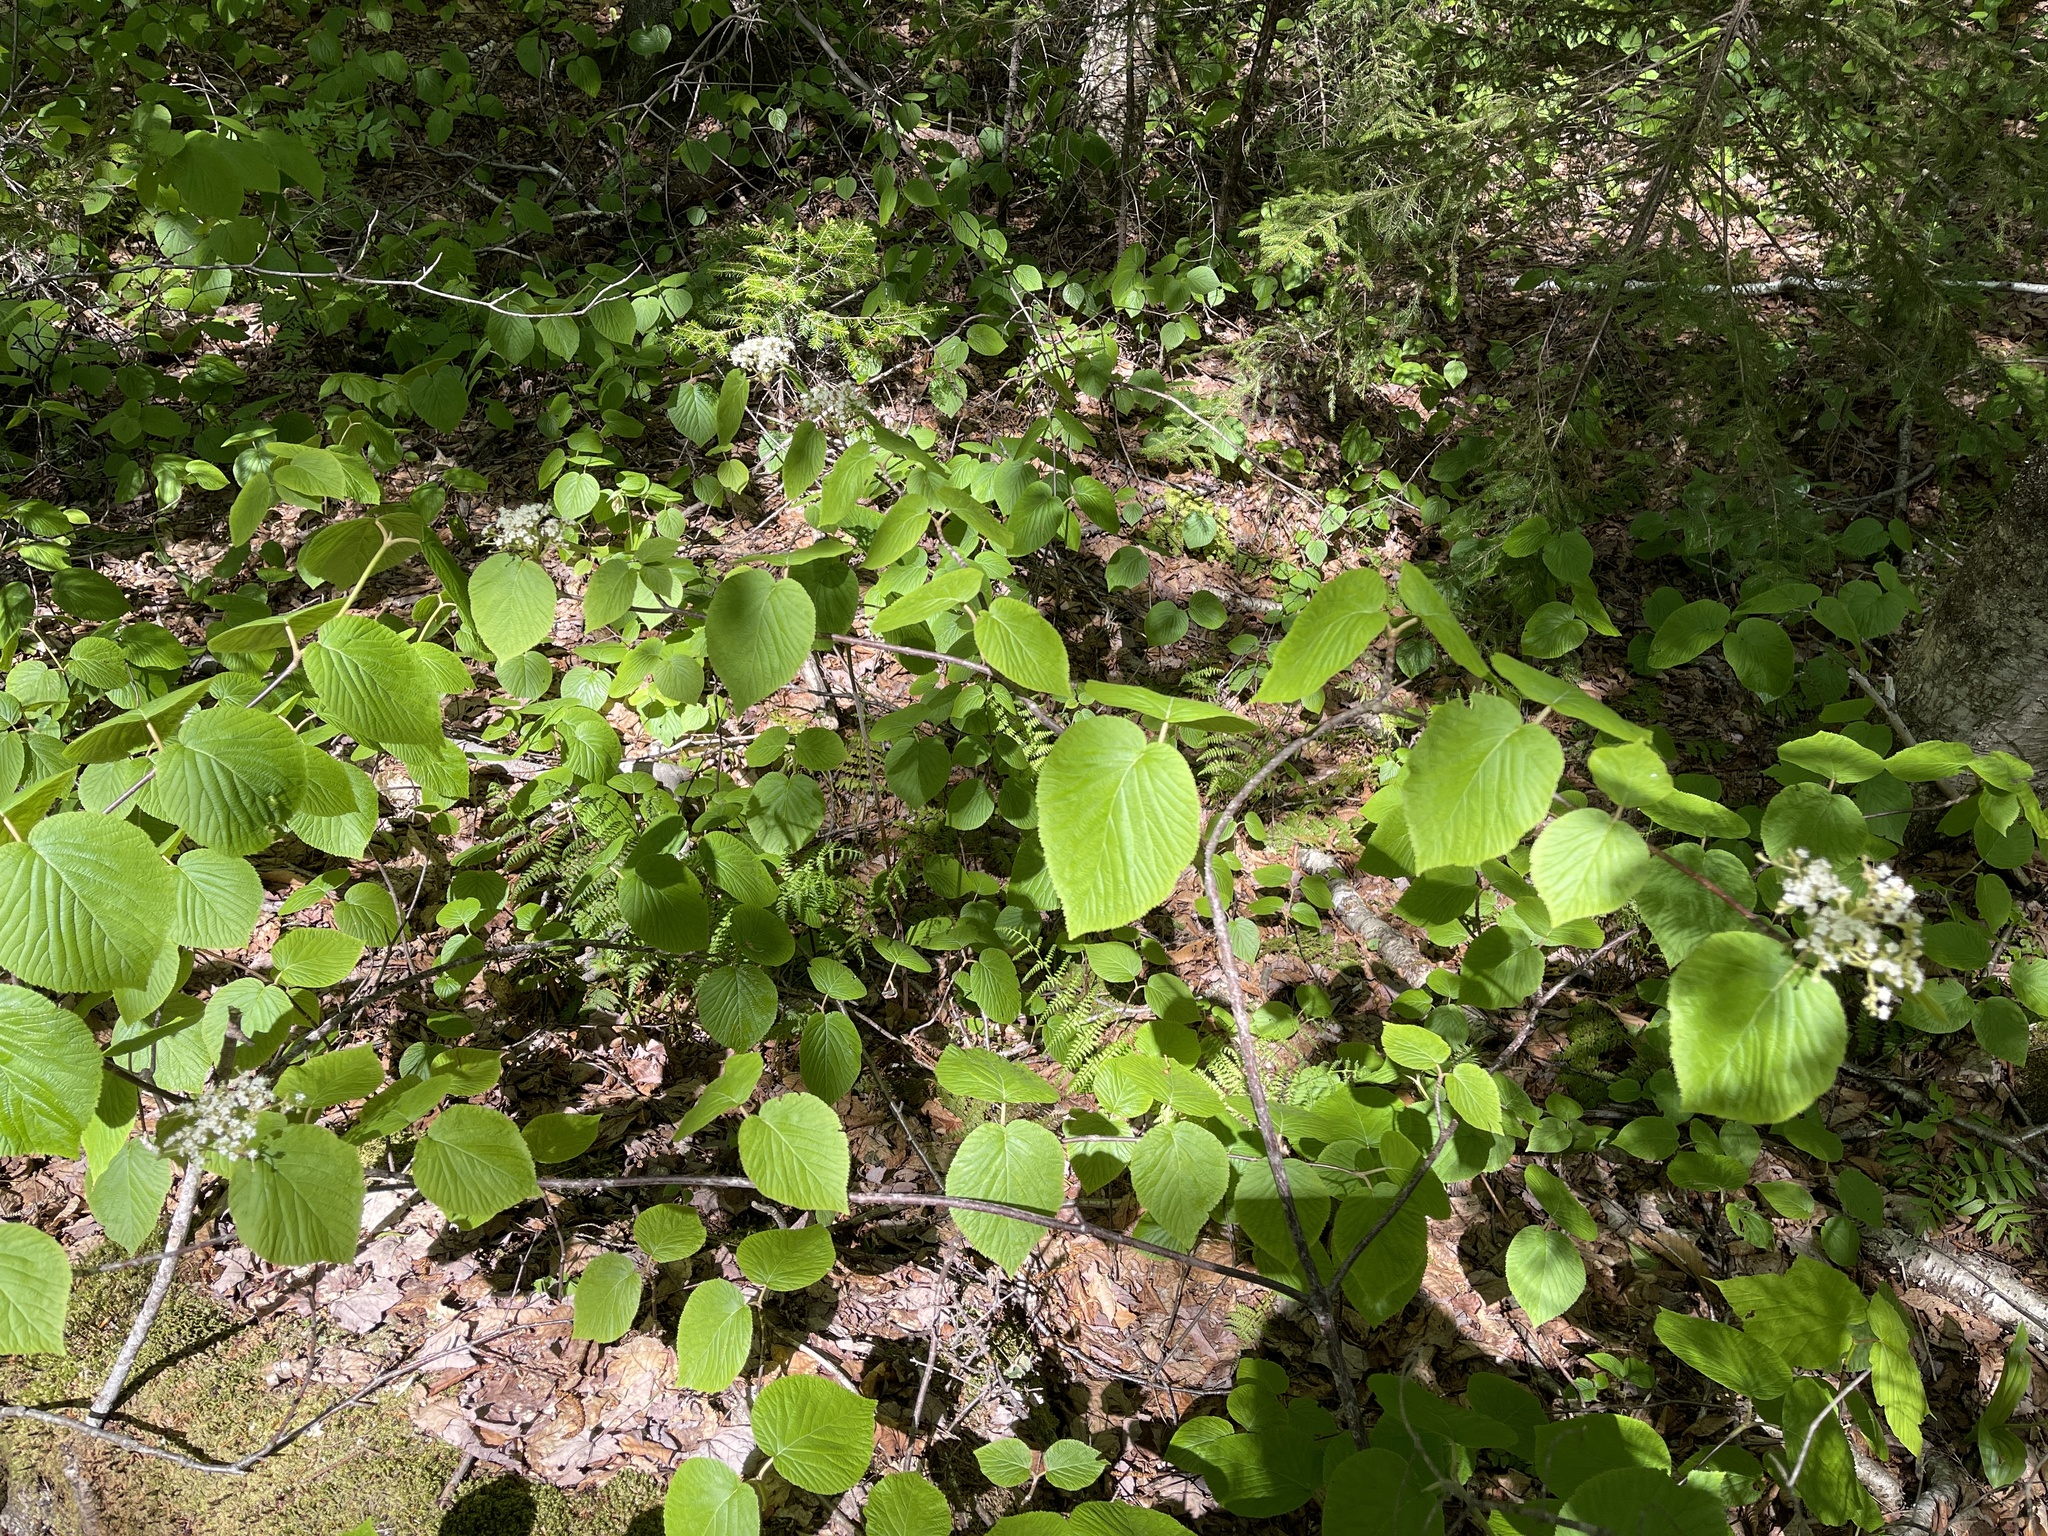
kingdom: Plantae
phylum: Tracheophyta
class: Magnoliopsida
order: Dipsacales
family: Viburnaceae
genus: Viburnum
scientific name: Viburnum lantanoides
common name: Hobblebush
